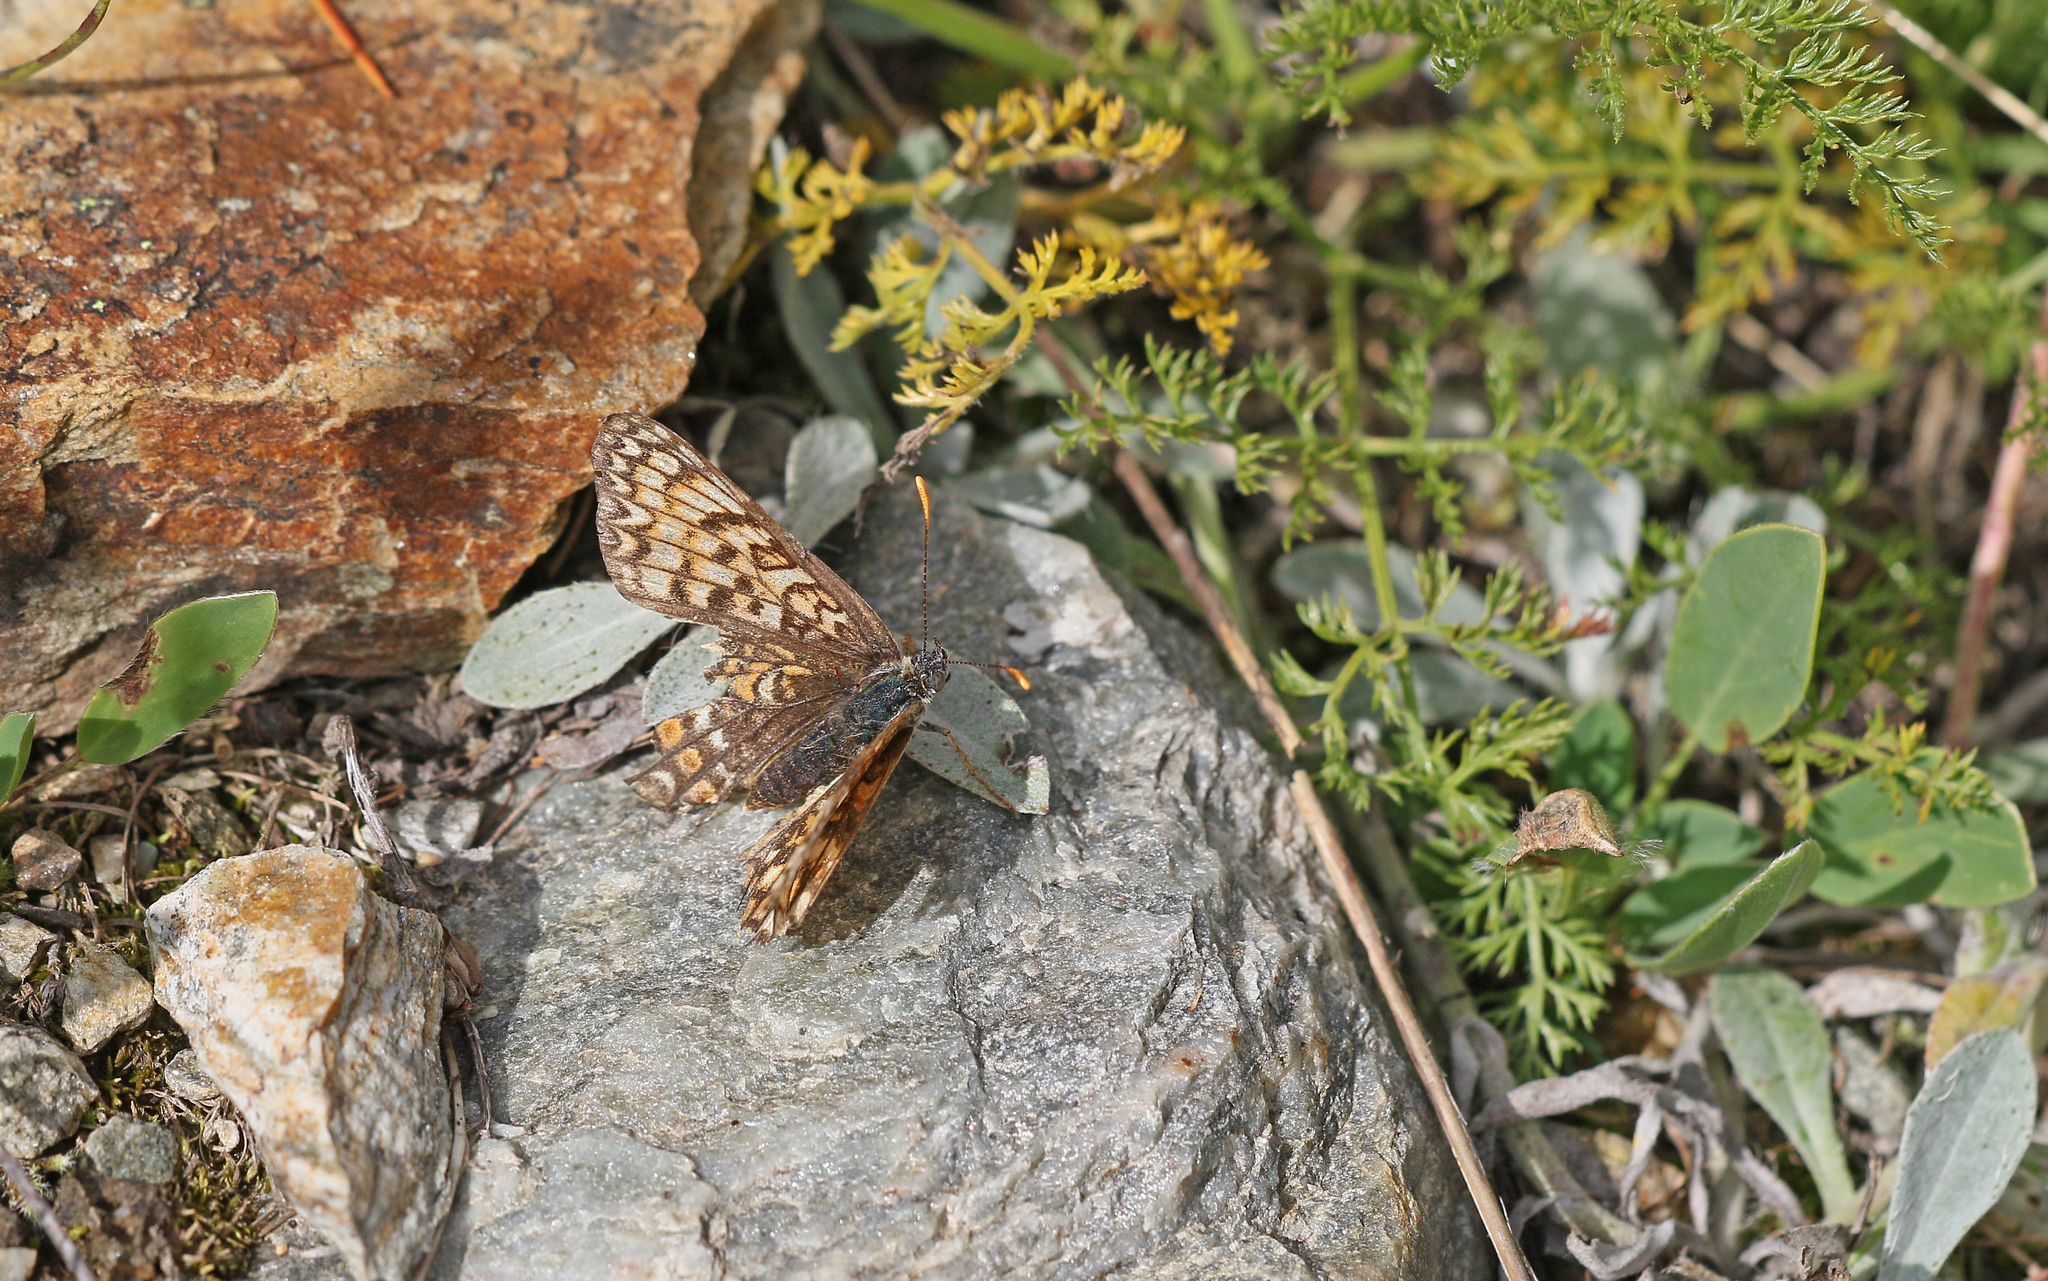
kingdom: Animalia
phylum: Arthropoda
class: Insecta
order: Lepidoptera
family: Nymphalidae
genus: Melitaea
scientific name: Melitaea phoebe
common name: Knapweed fritillary
